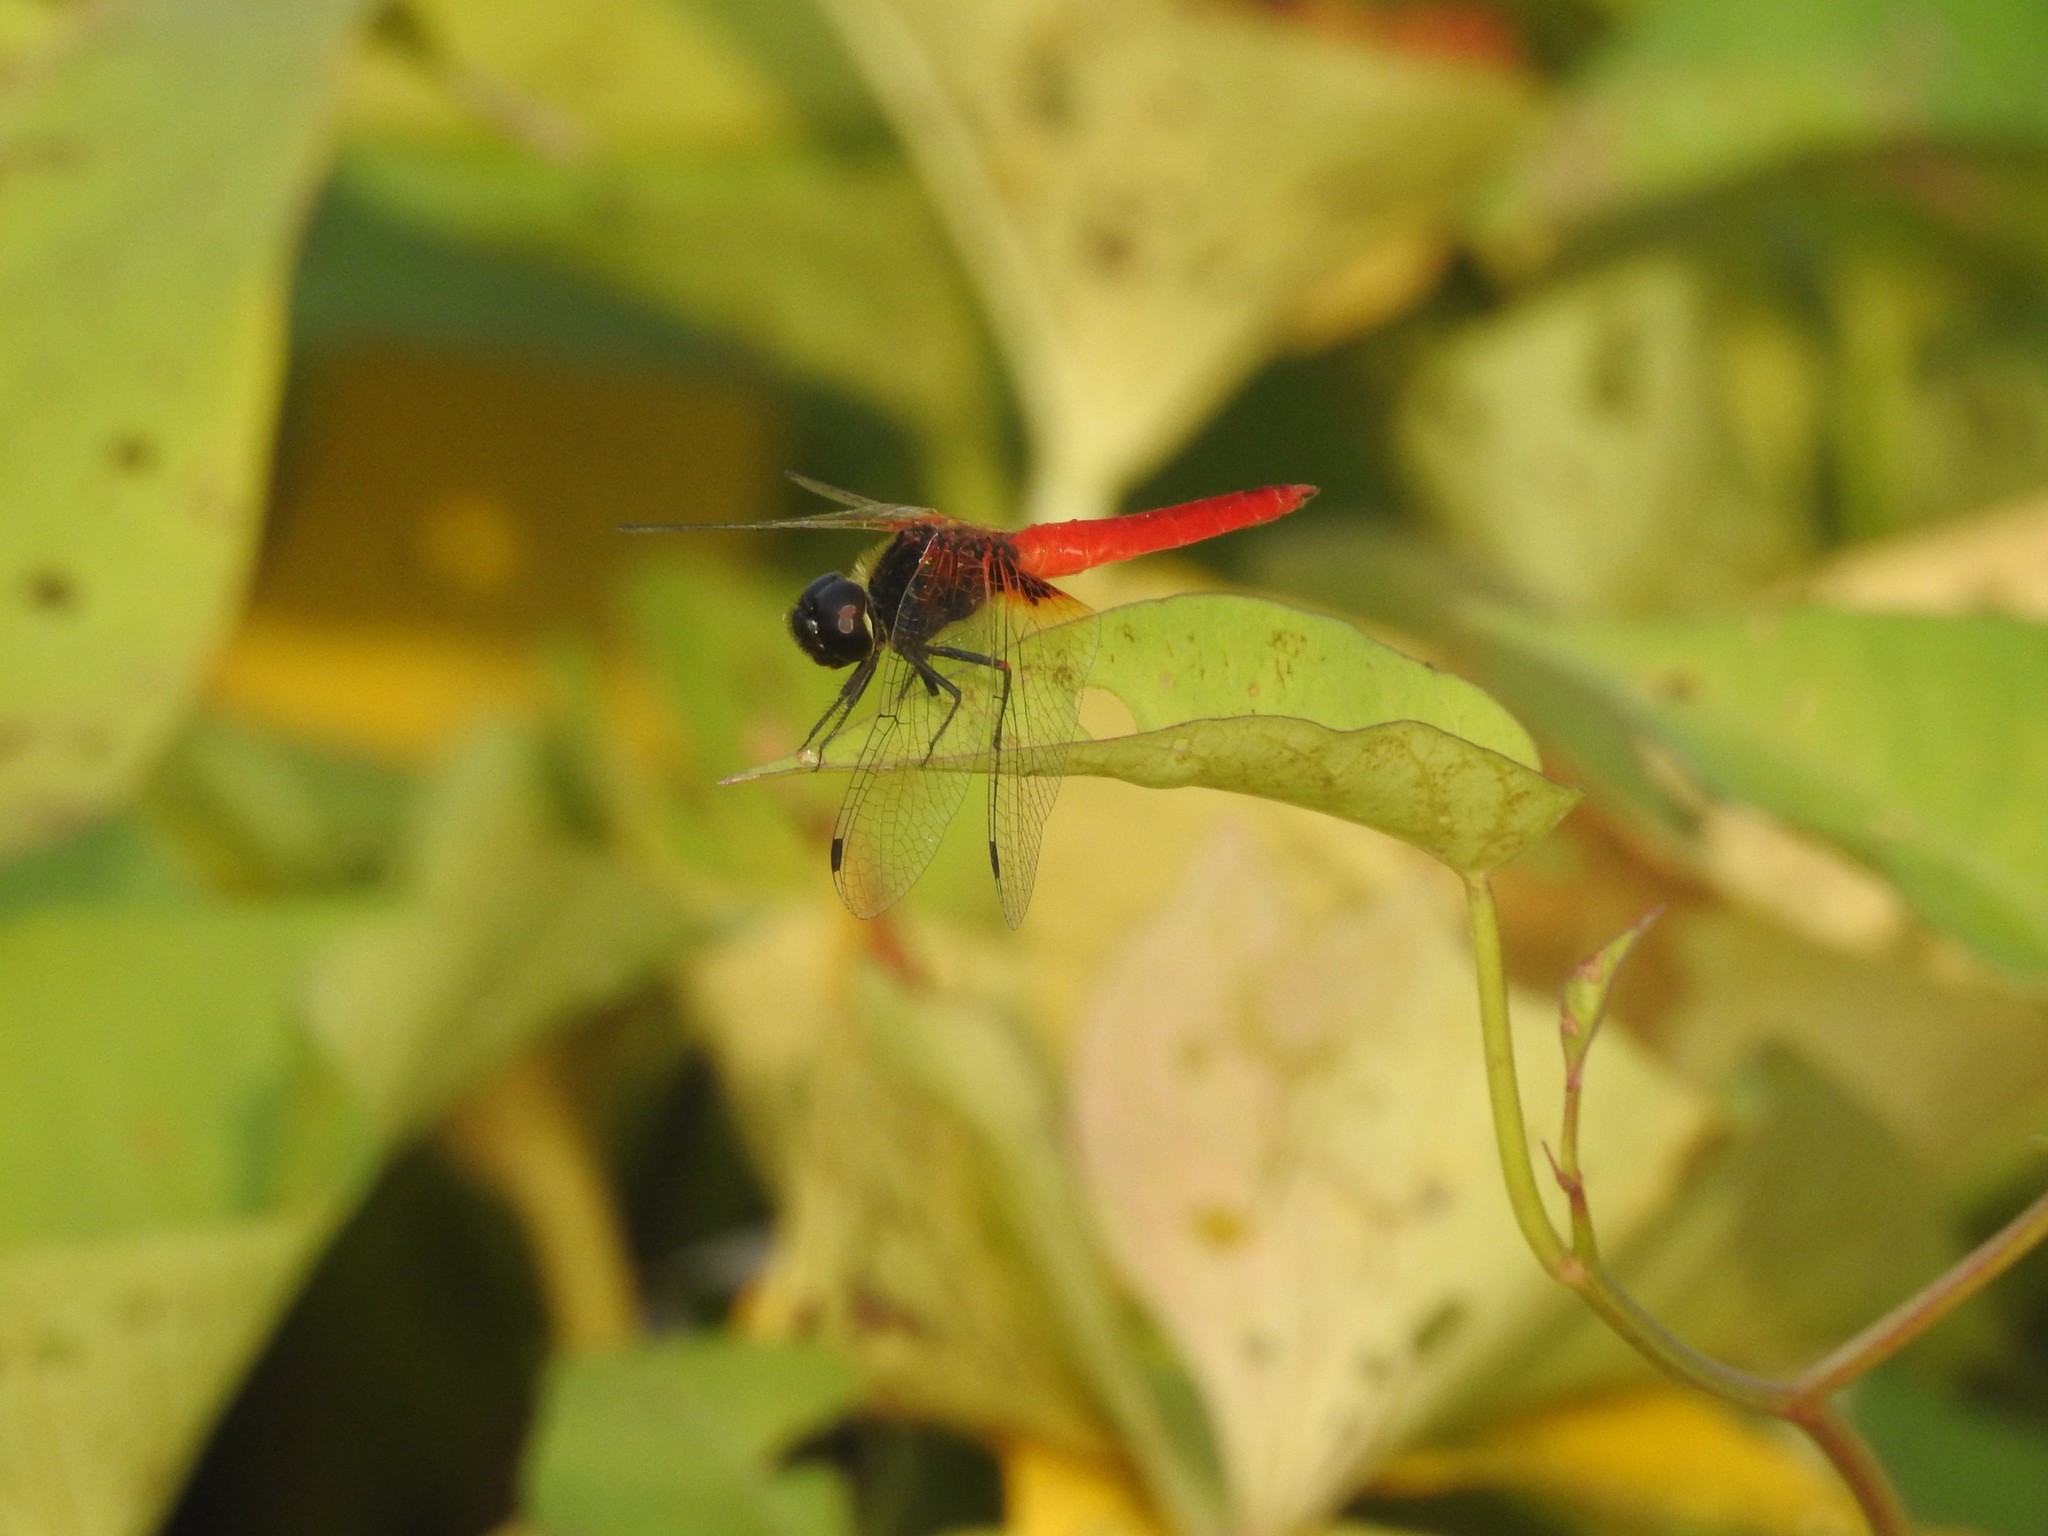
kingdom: Animalia
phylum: Arthropoda
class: Insecta
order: Odonata
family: Libellulidae
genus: Aethriamanta
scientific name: Aethriamanta brevipennis
